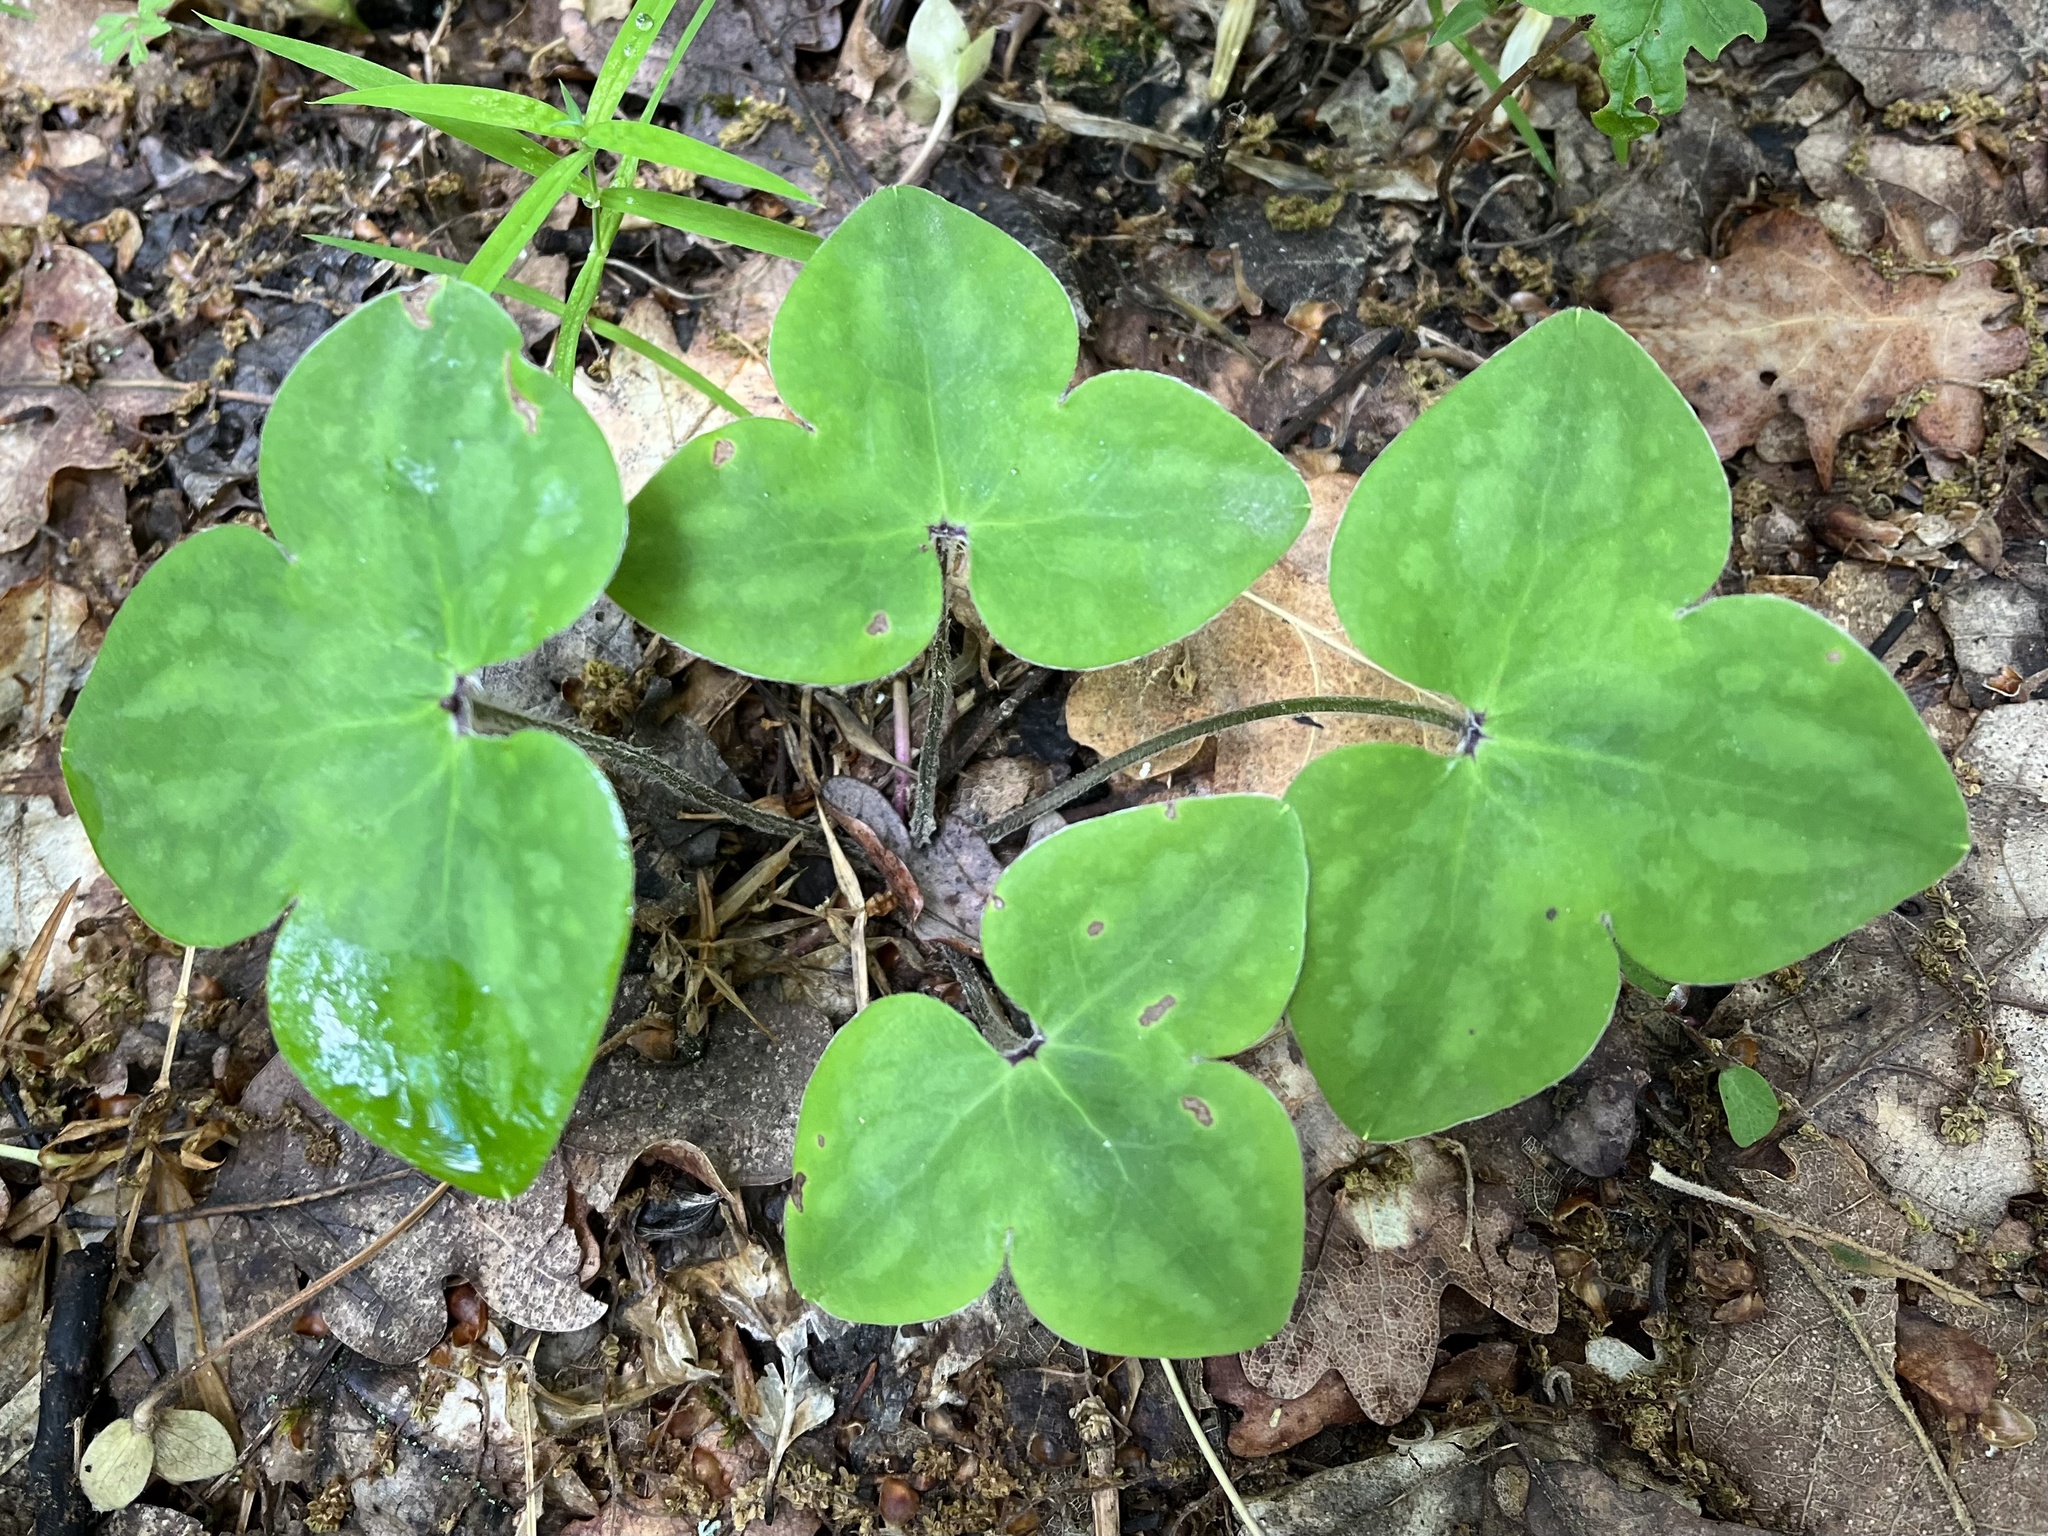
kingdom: Plantae
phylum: Tracheophyta
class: Magnoliopsida
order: Ranunculales
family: Ranunculaceae
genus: Hepatica
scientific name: Hepatica nobilis
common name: Liverleaf
